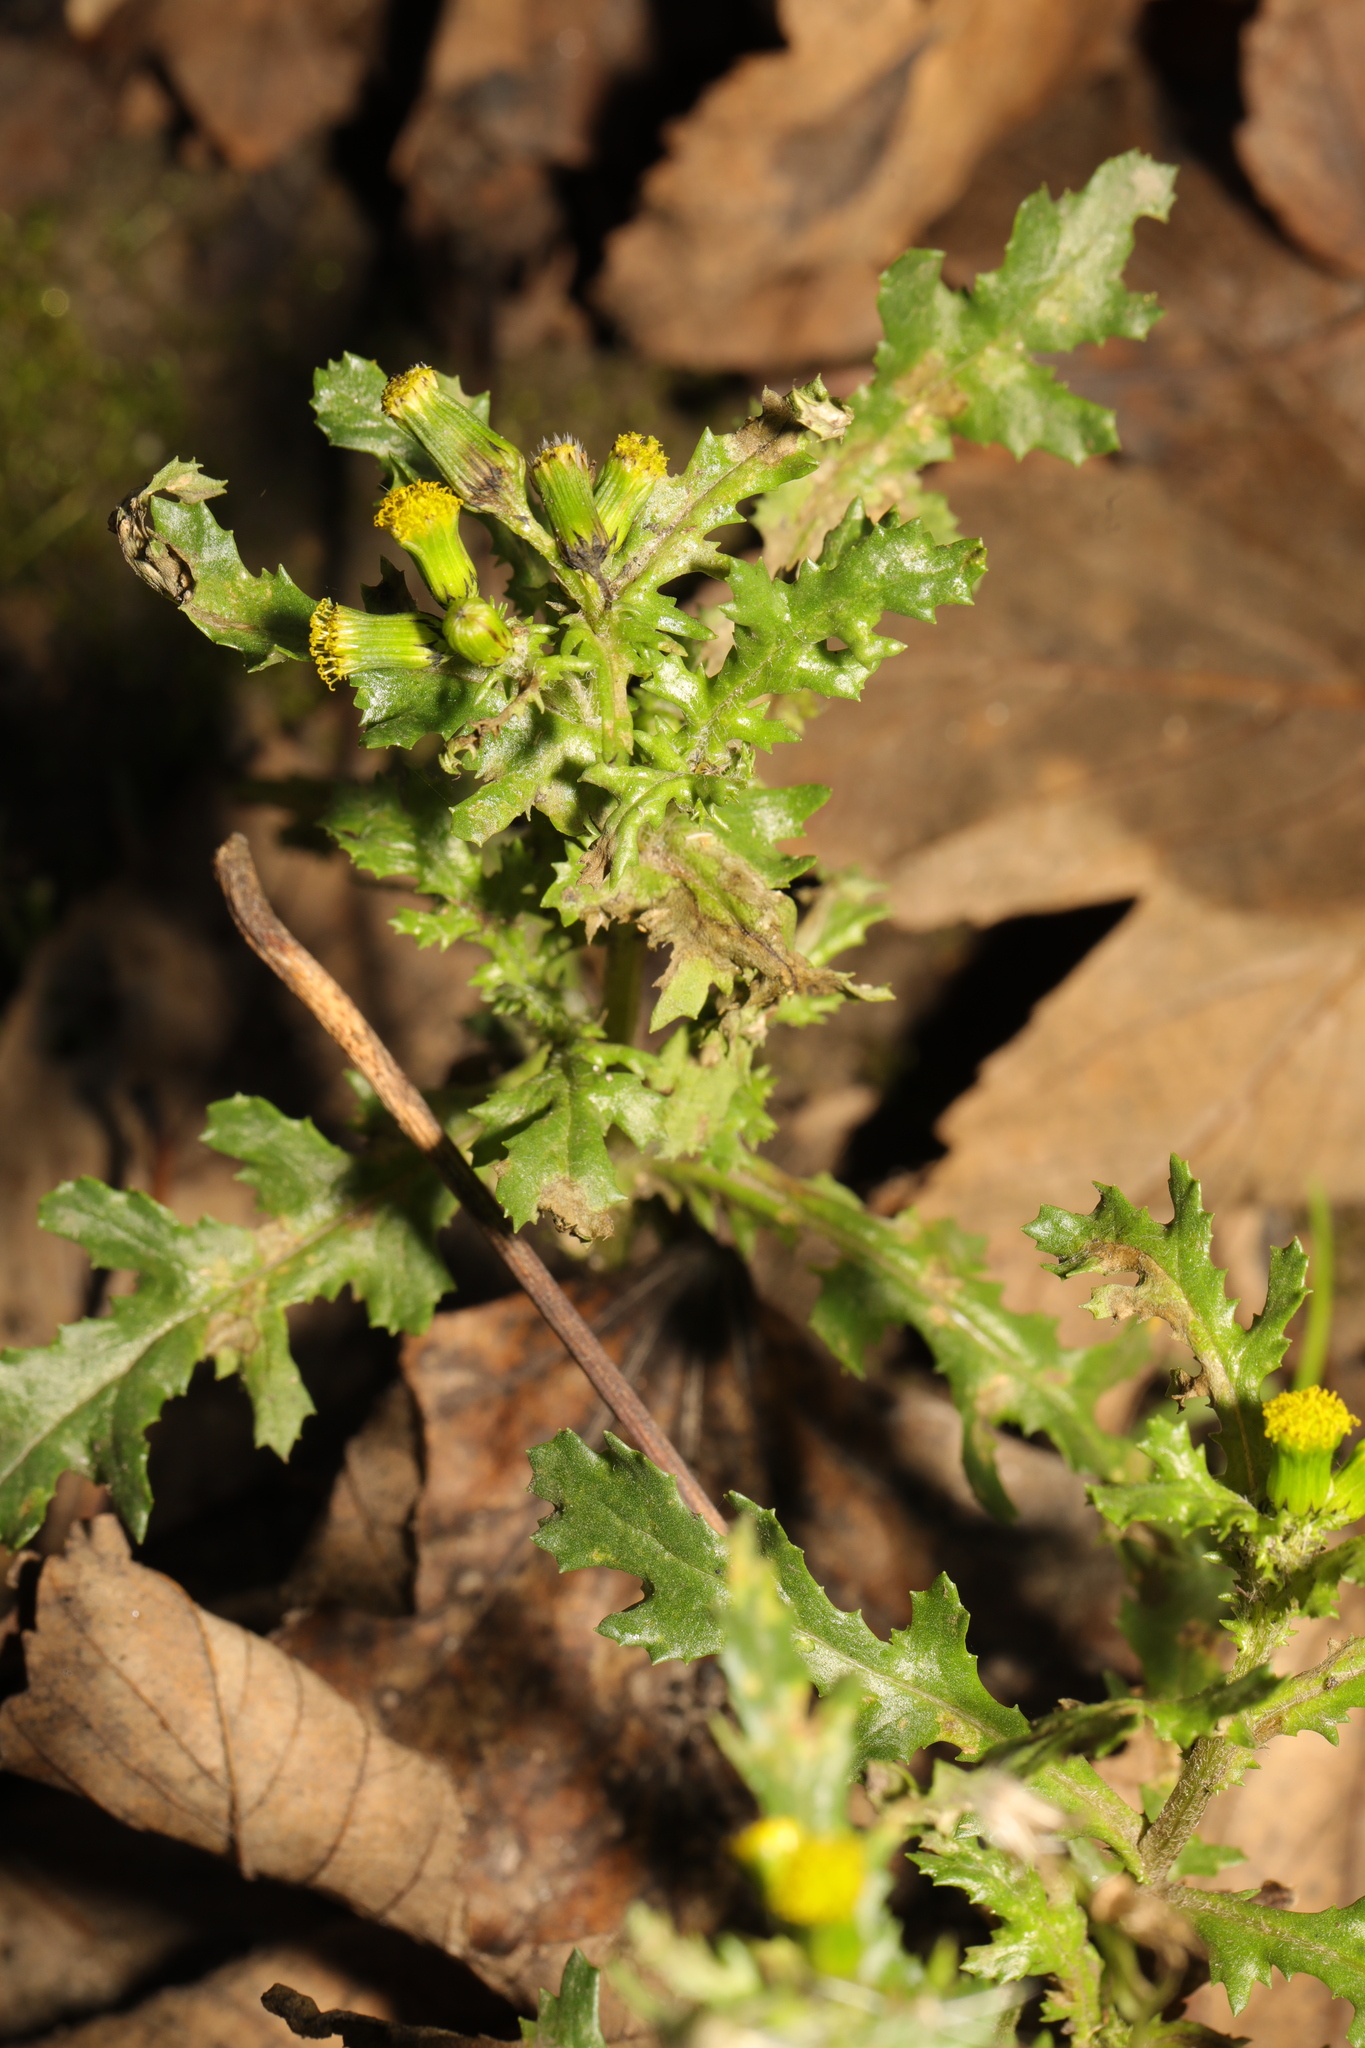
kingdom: Plantae
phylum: Tracheophyta
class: Magnoliopsida
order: Asterales
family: Asteraceae
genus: Senecio
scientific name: Senecio vulgaris
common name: Old-man-in-the-spring
